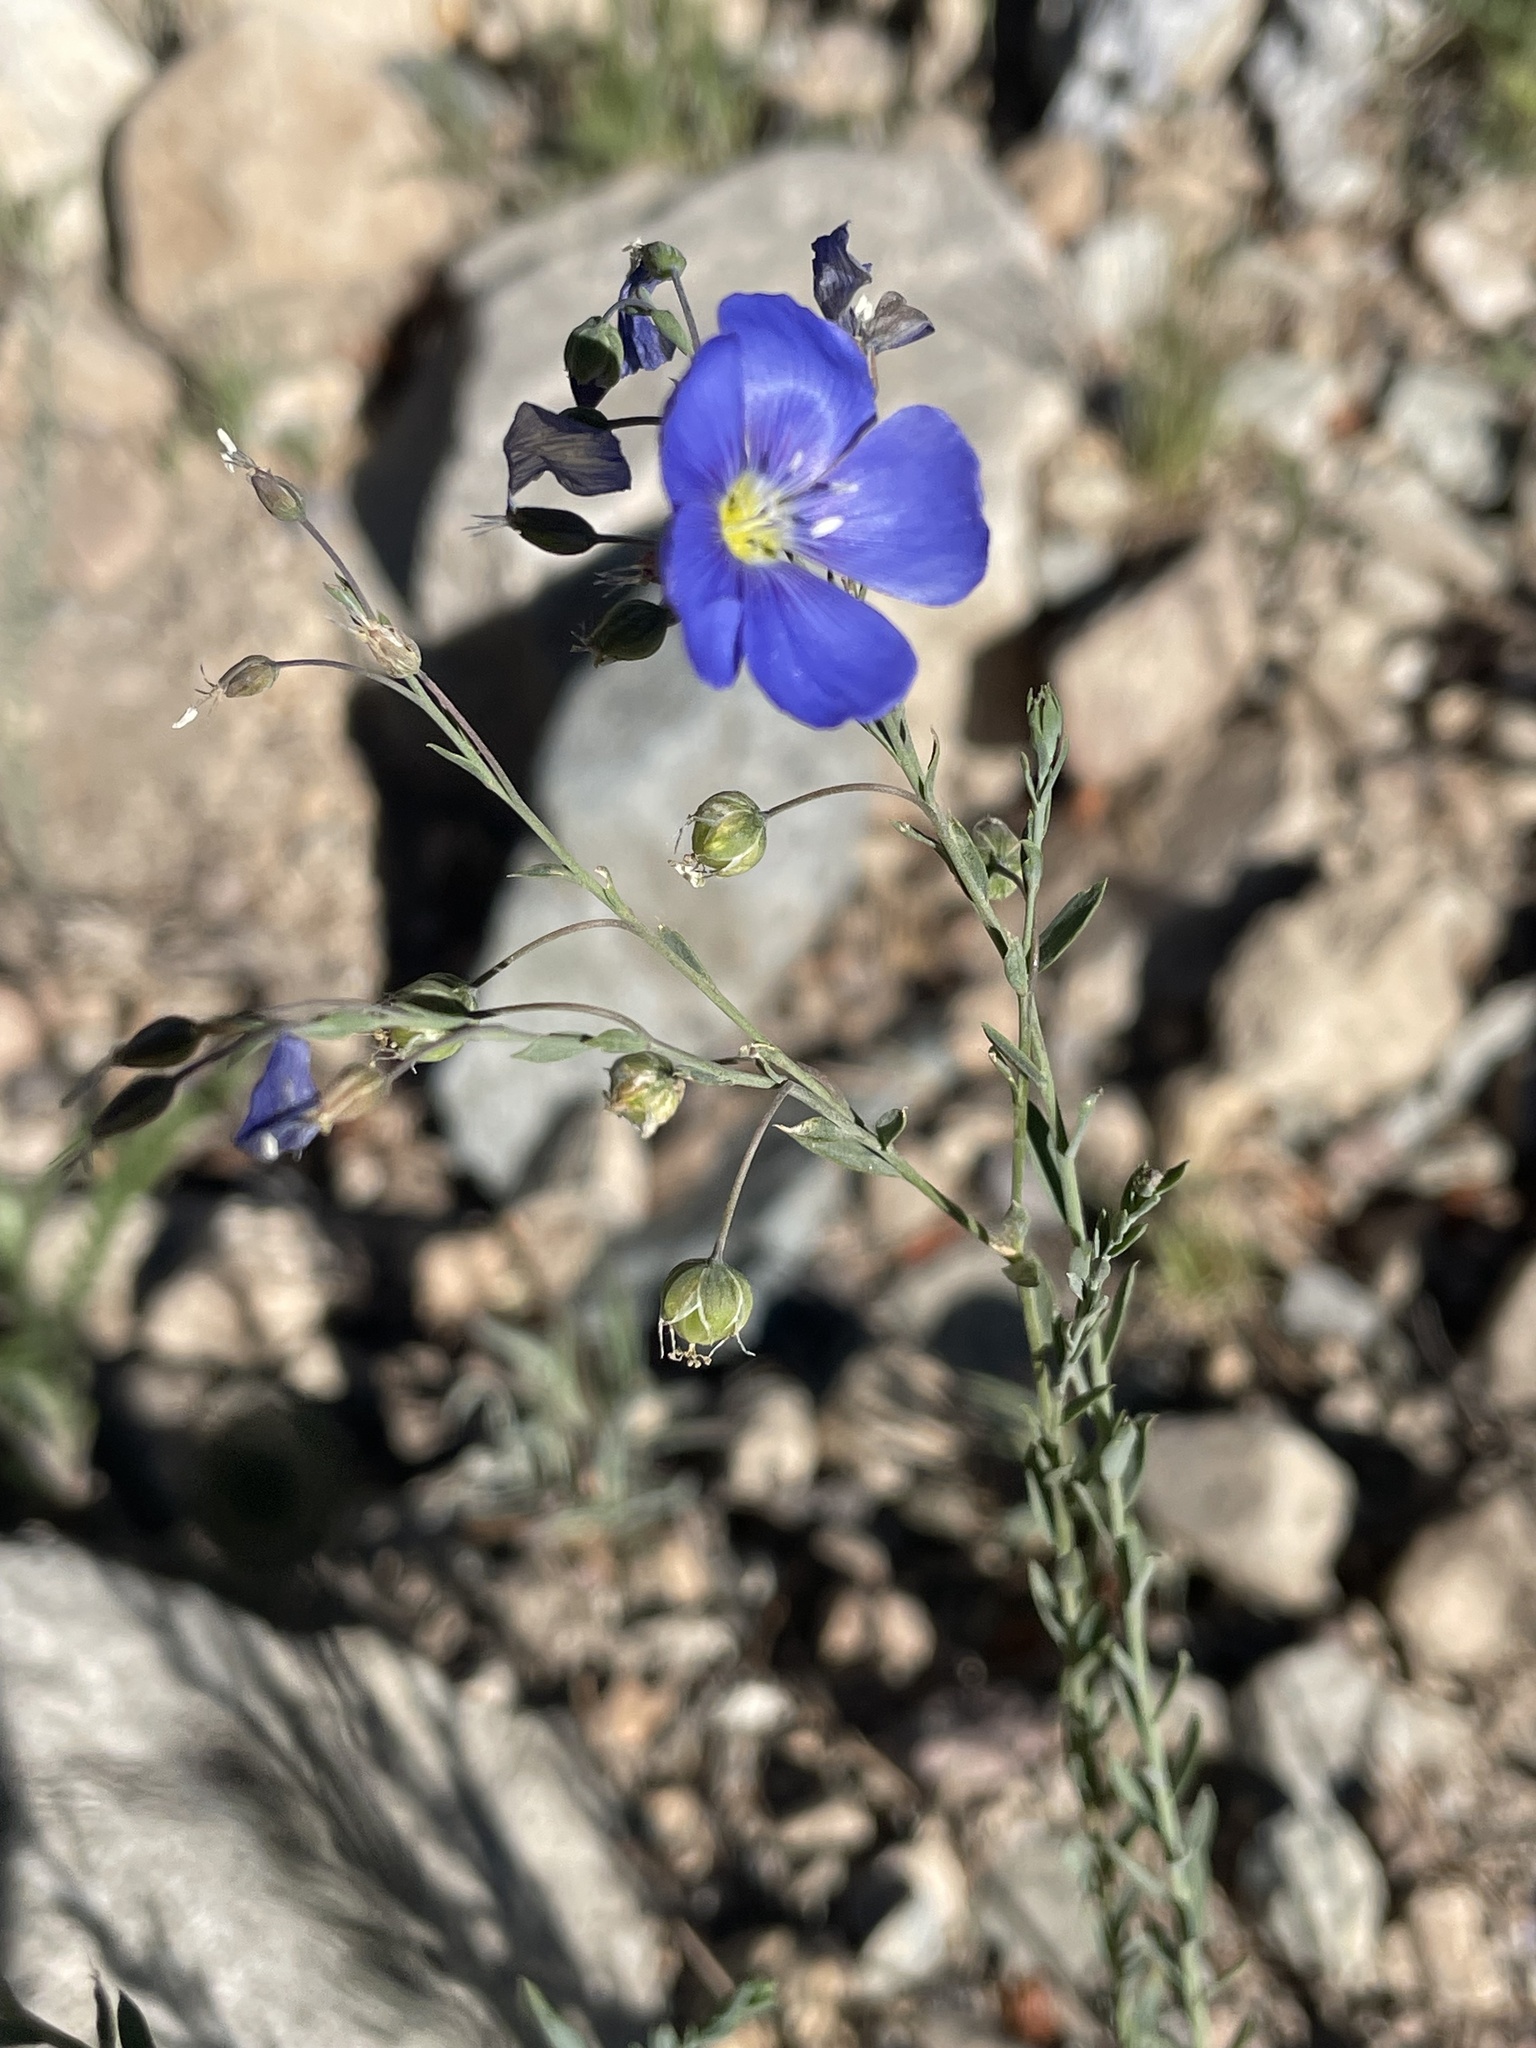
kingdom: Plantae
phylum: Tracheophyta
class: Magnoliopsida
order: Malpighiales
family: Linaceae
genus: Linum
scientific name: Linum lewisii
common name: Prairie flax
